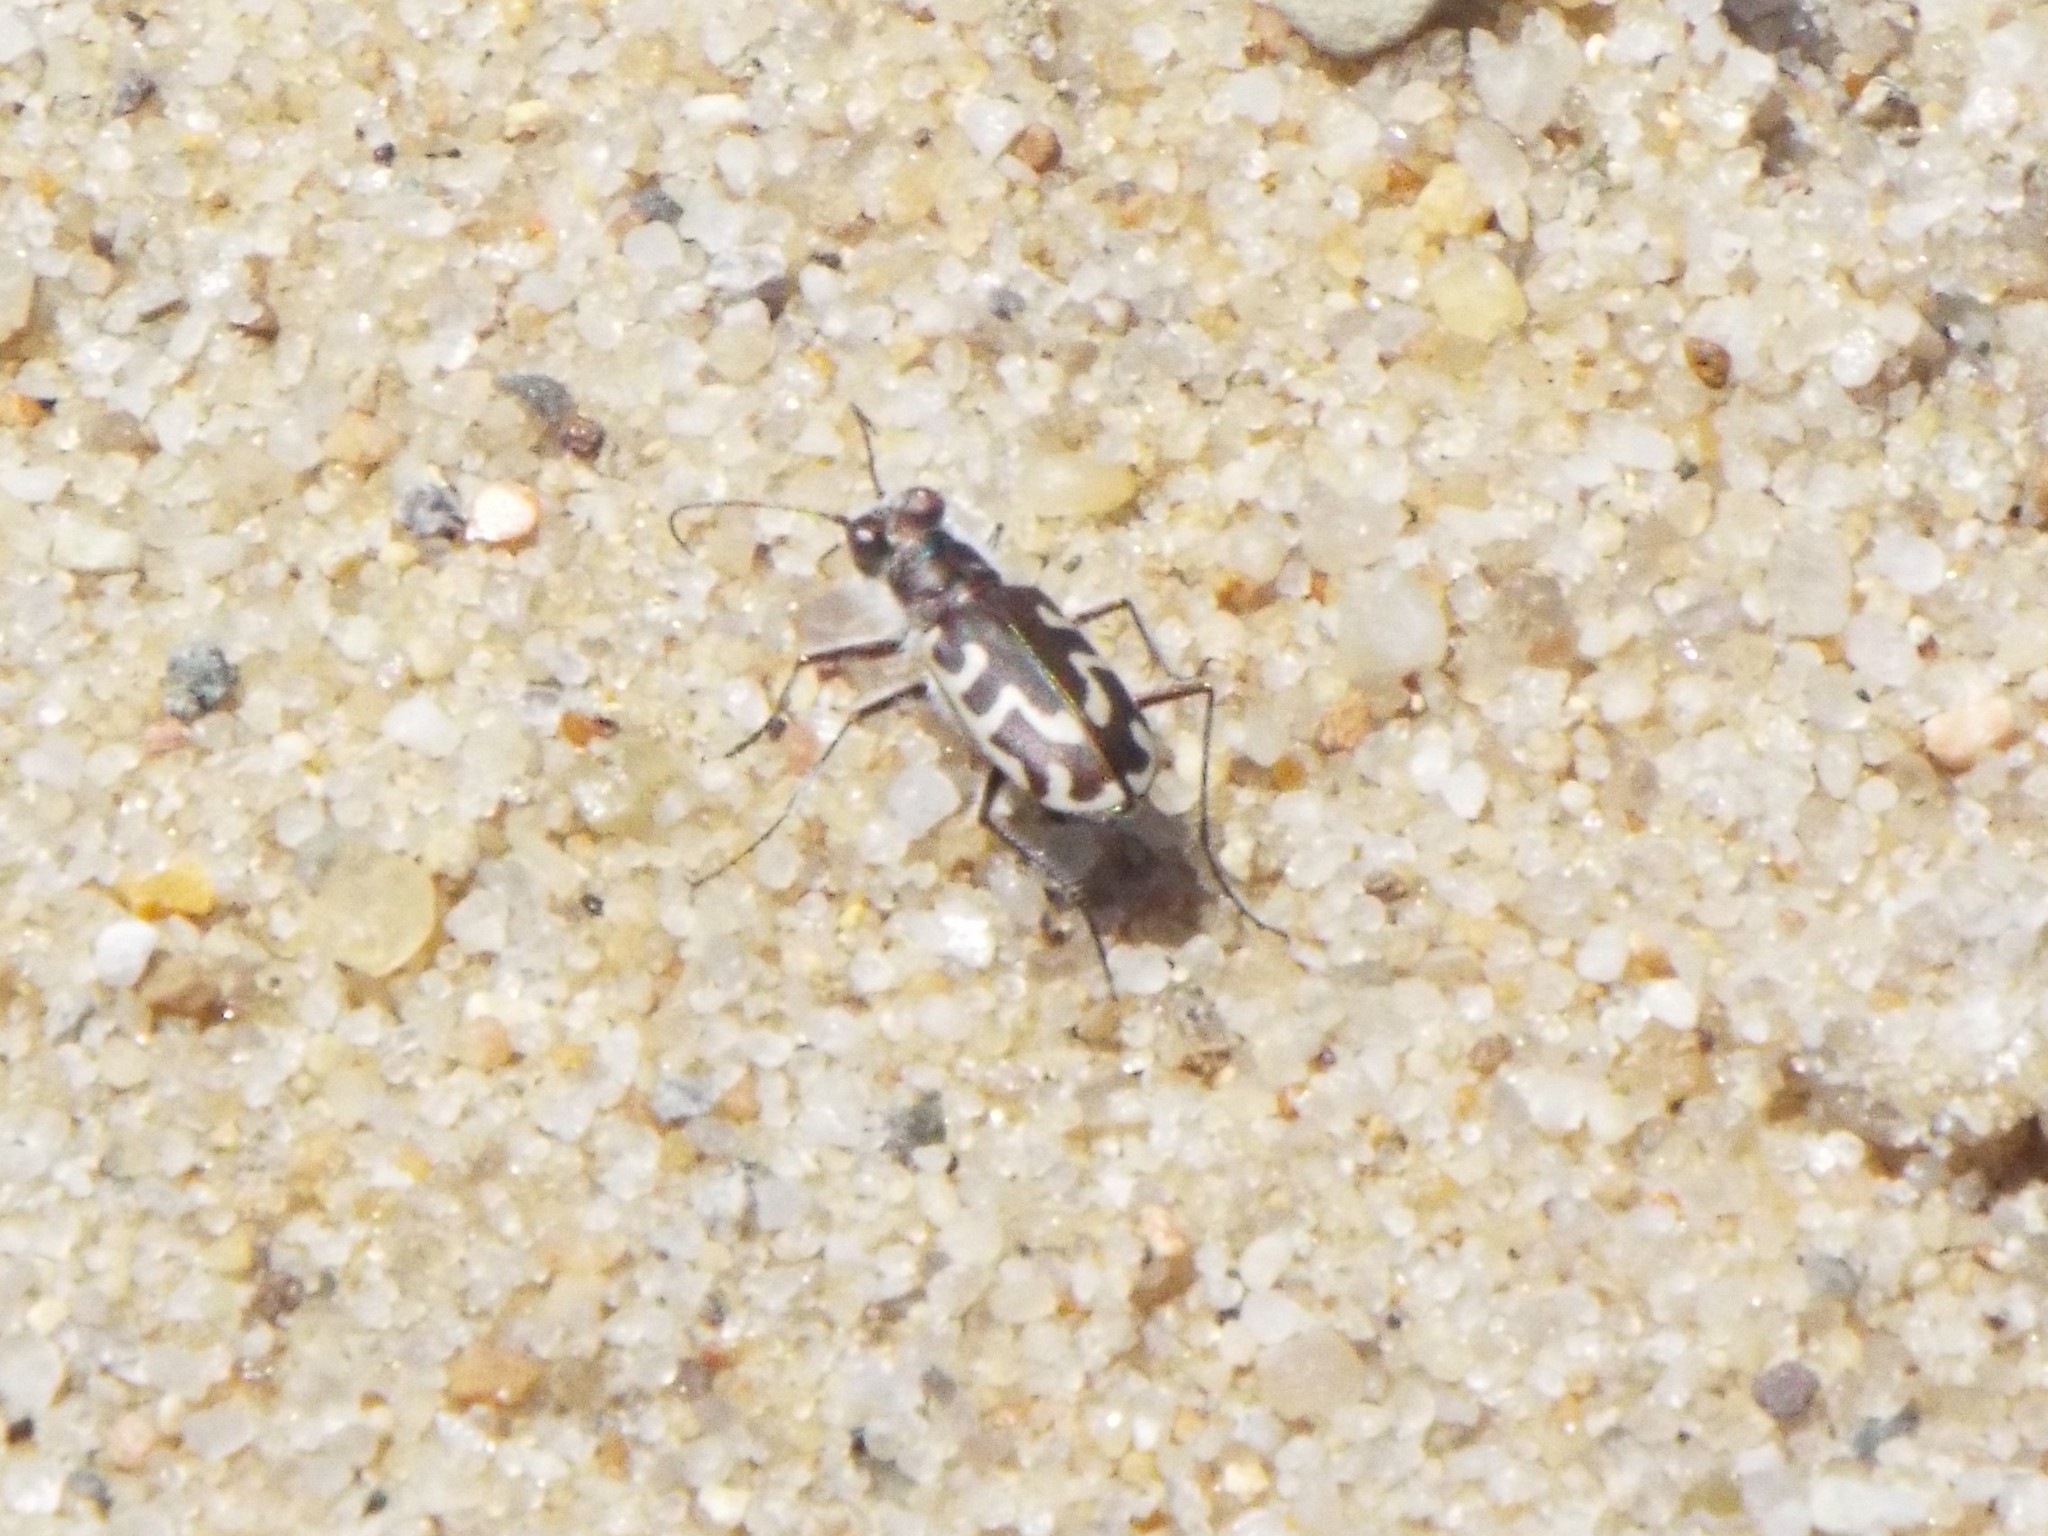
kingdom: Animalia
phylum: Arthropoda
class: Insecta
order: Coleoptera
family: Carabidae
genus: Cicindela
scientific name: Cicindela hirticollis
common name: Hairy-necked tiger beetle
